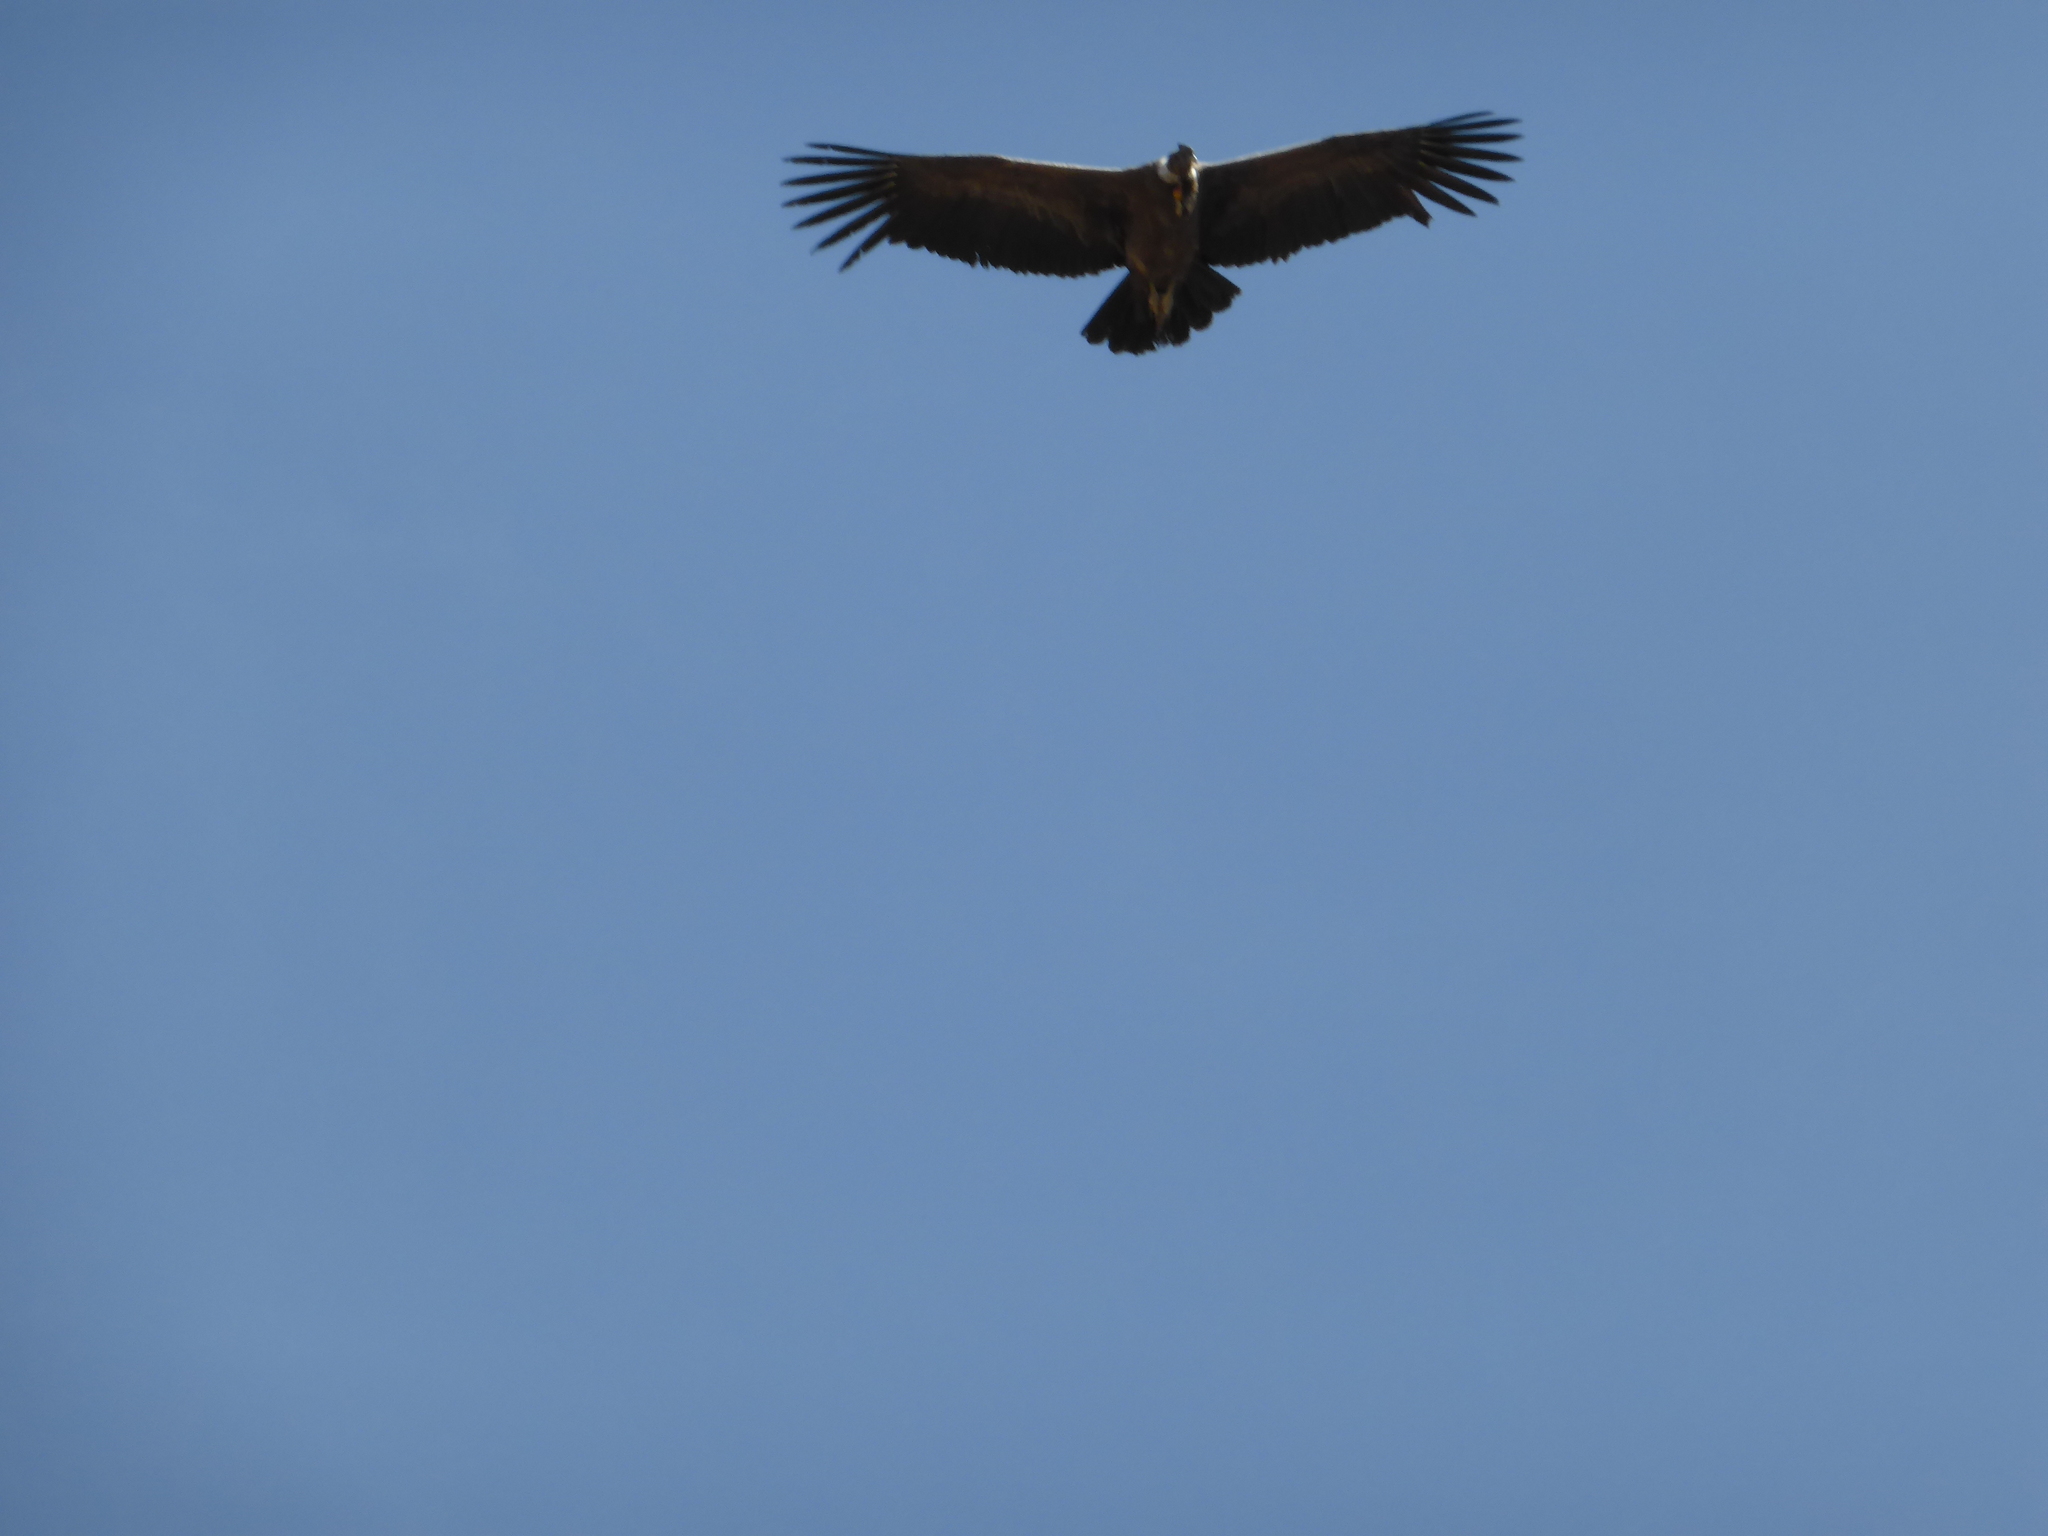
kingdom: Animalia
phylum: Chordata
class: Aves
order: Accipitriformes
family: Cathartidae
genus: Vultur
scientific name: Vultur gryphus
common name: Andean condor
